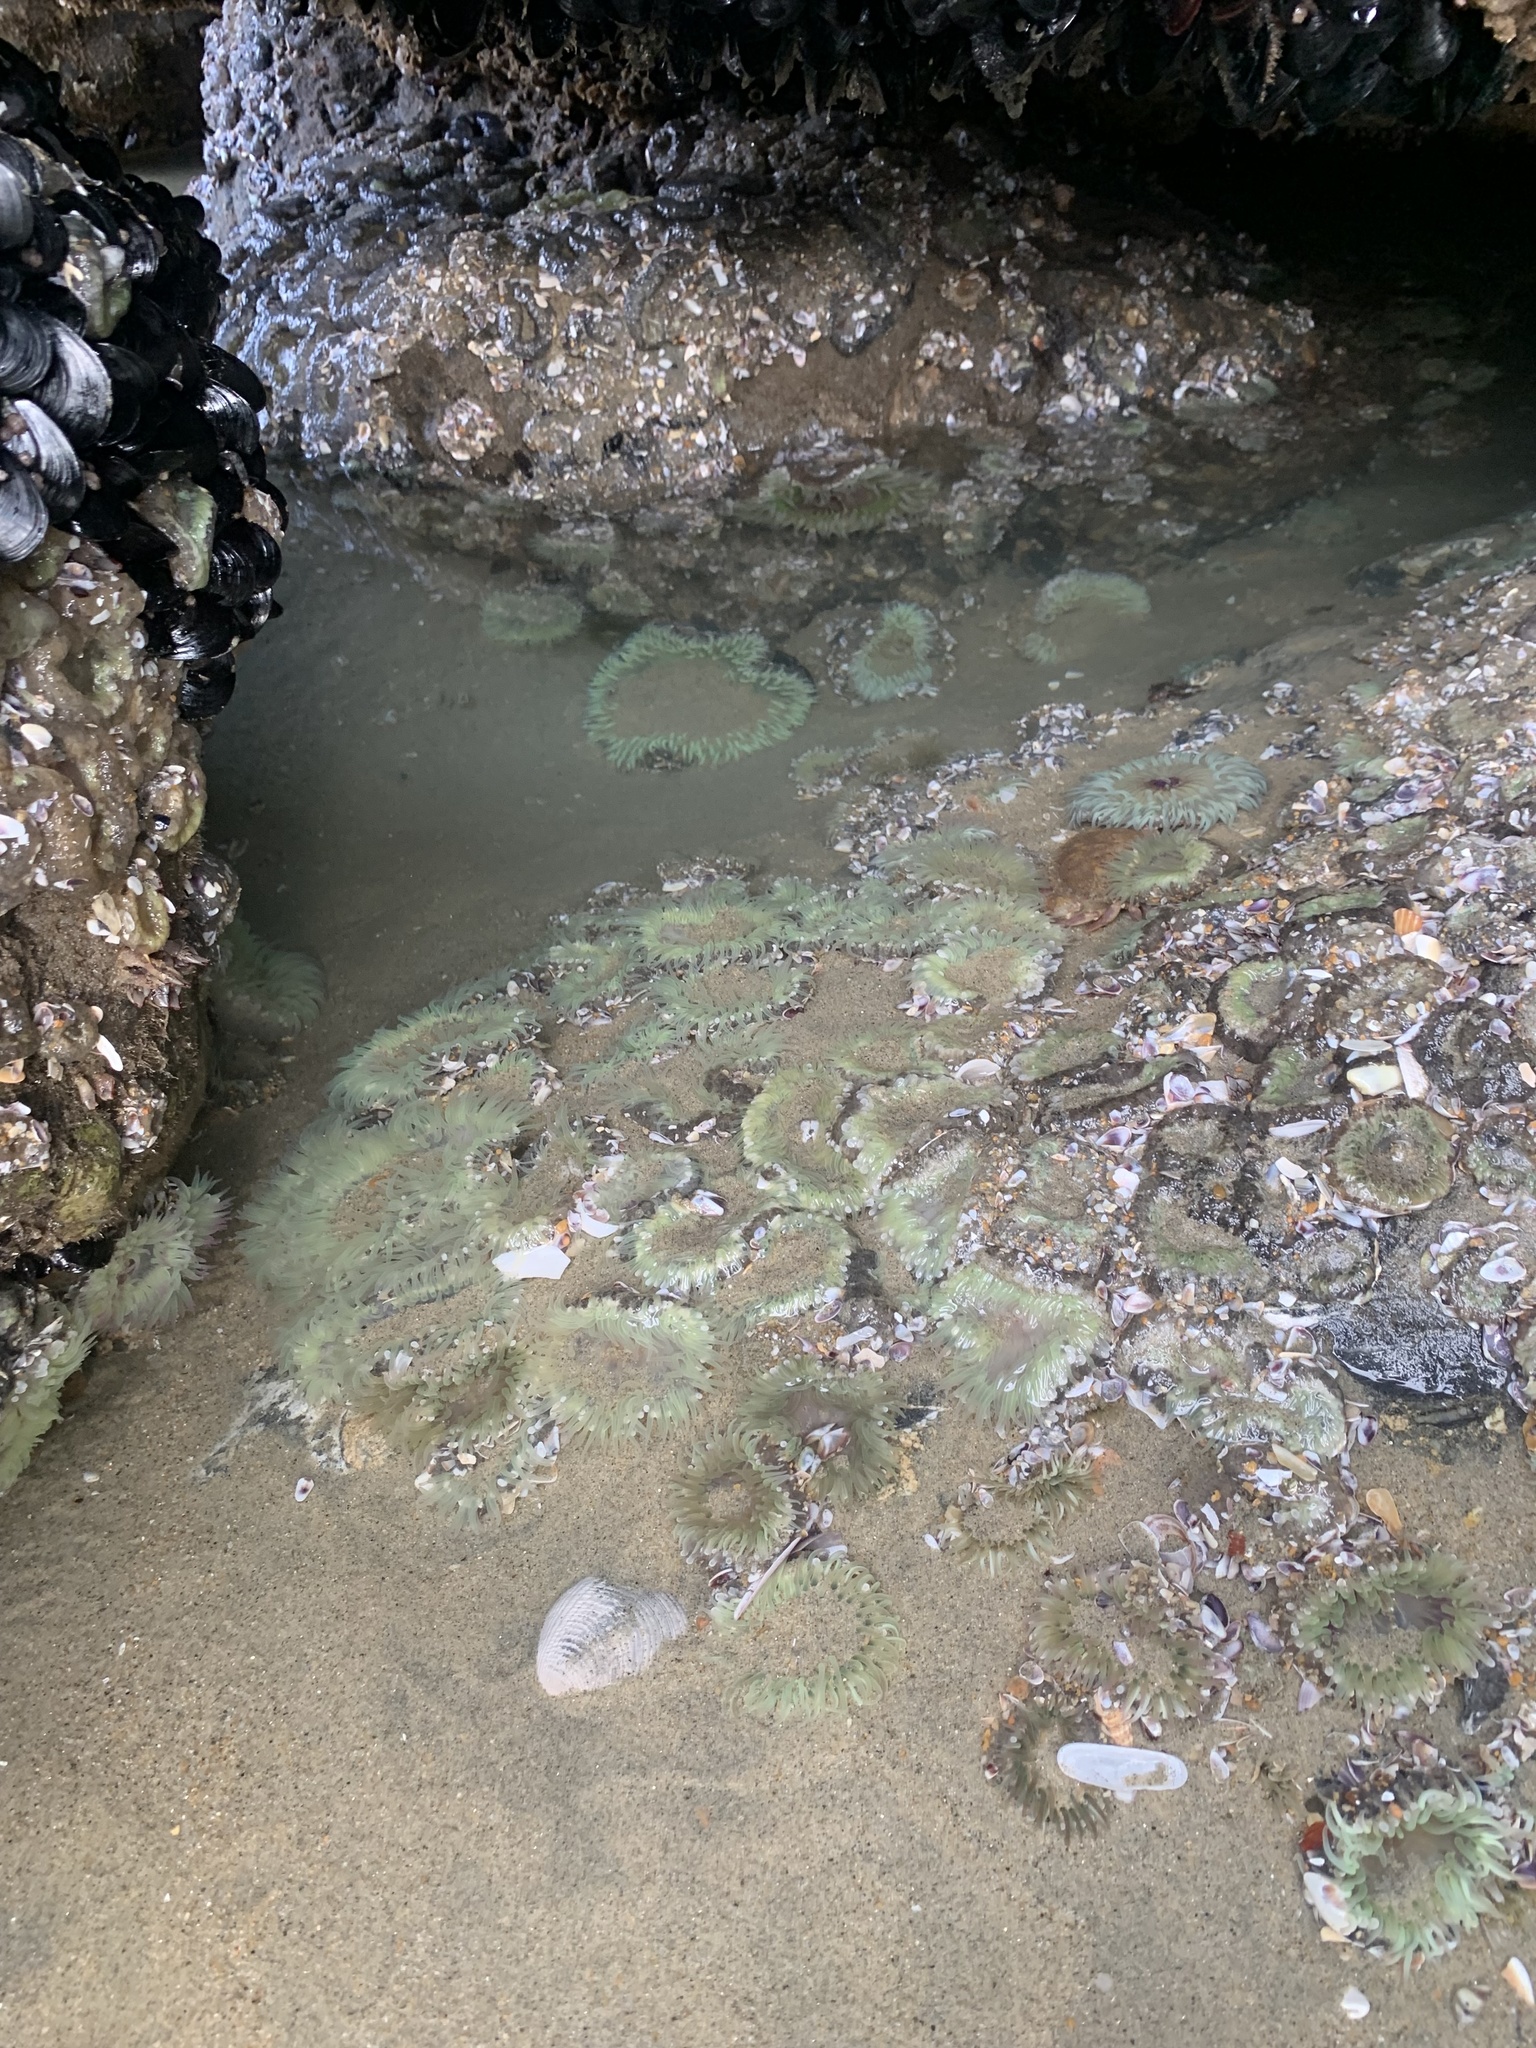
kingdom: Animalia
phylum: Cnidaria
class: Anthozoa
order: Actiniaria
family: Actiniidae
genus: Anthopleura
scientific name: Anthopleura sola
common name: Sun anemone
